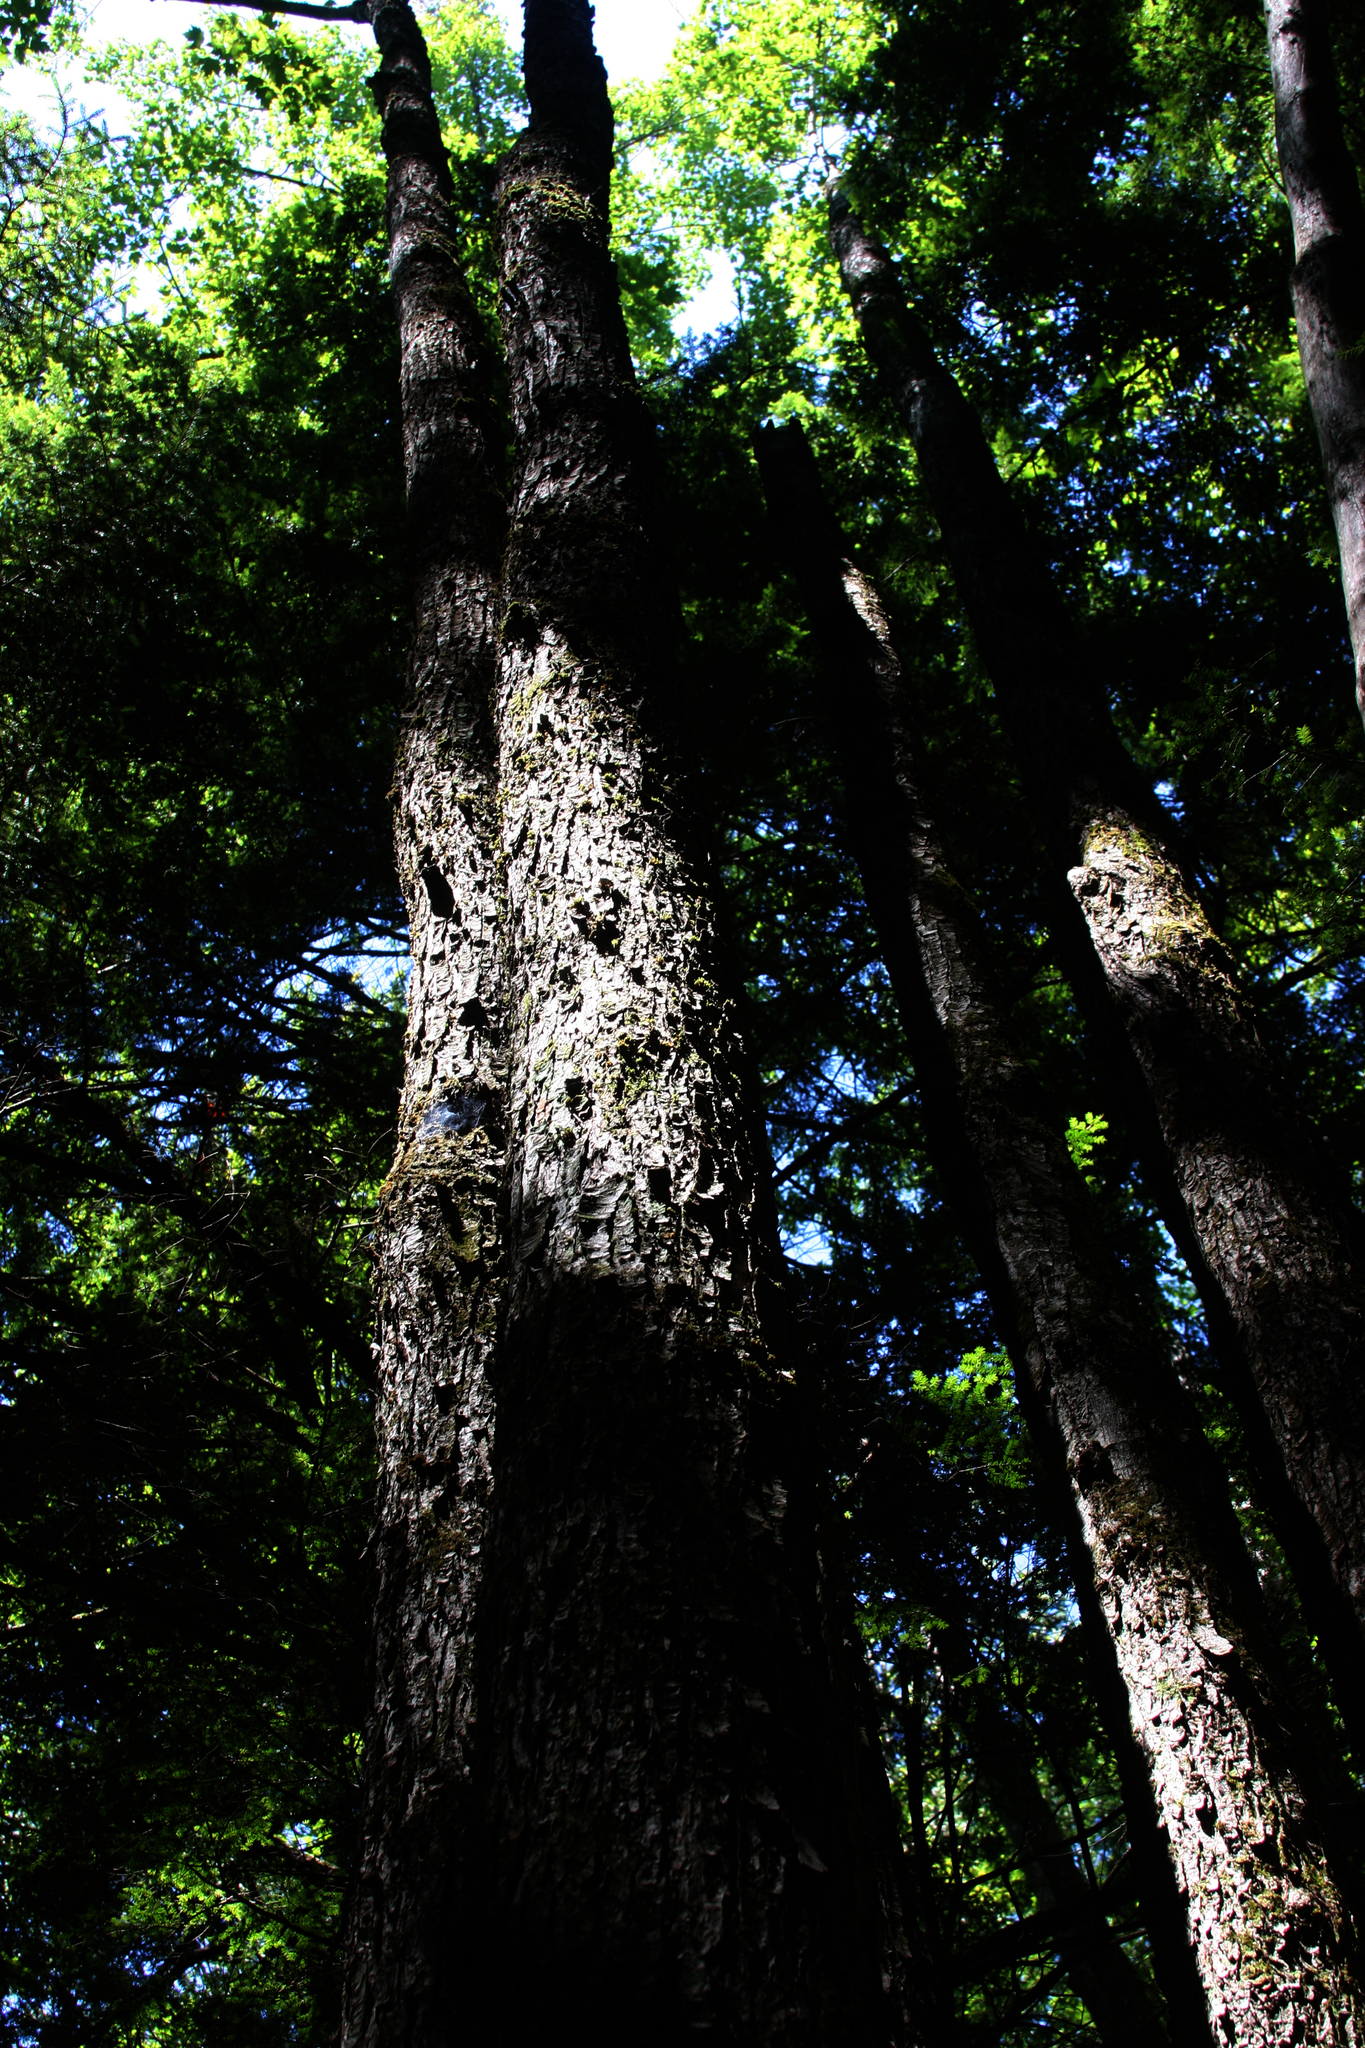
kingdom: Plantae
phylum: Tracheophyta
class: Magnoliopsida
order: Sapindales
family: Sapindaceae
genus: Acer
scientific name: Acer rubrum
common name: Red maple
